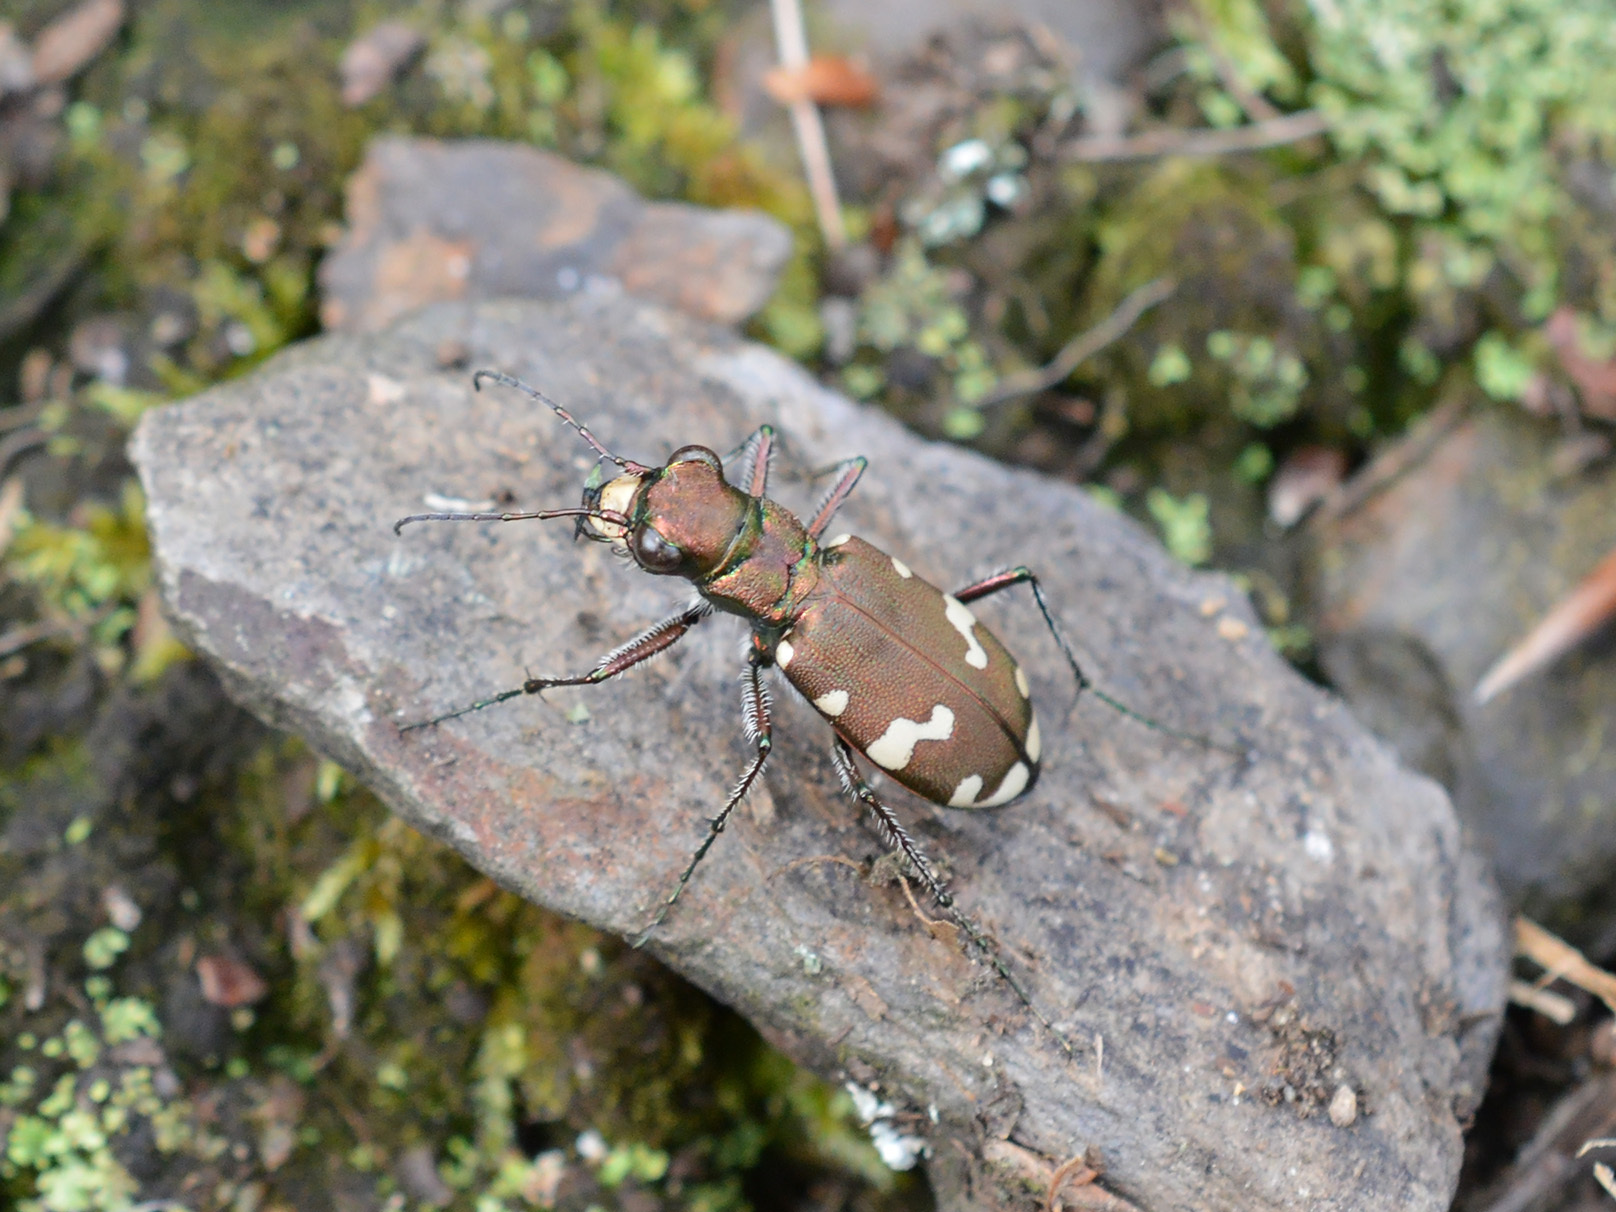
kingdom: Animalia
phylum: Arthropoda
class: Insecta
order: Coleoptera
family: Carabidae
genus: Cicindela
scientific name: Cicindela sylvicola
